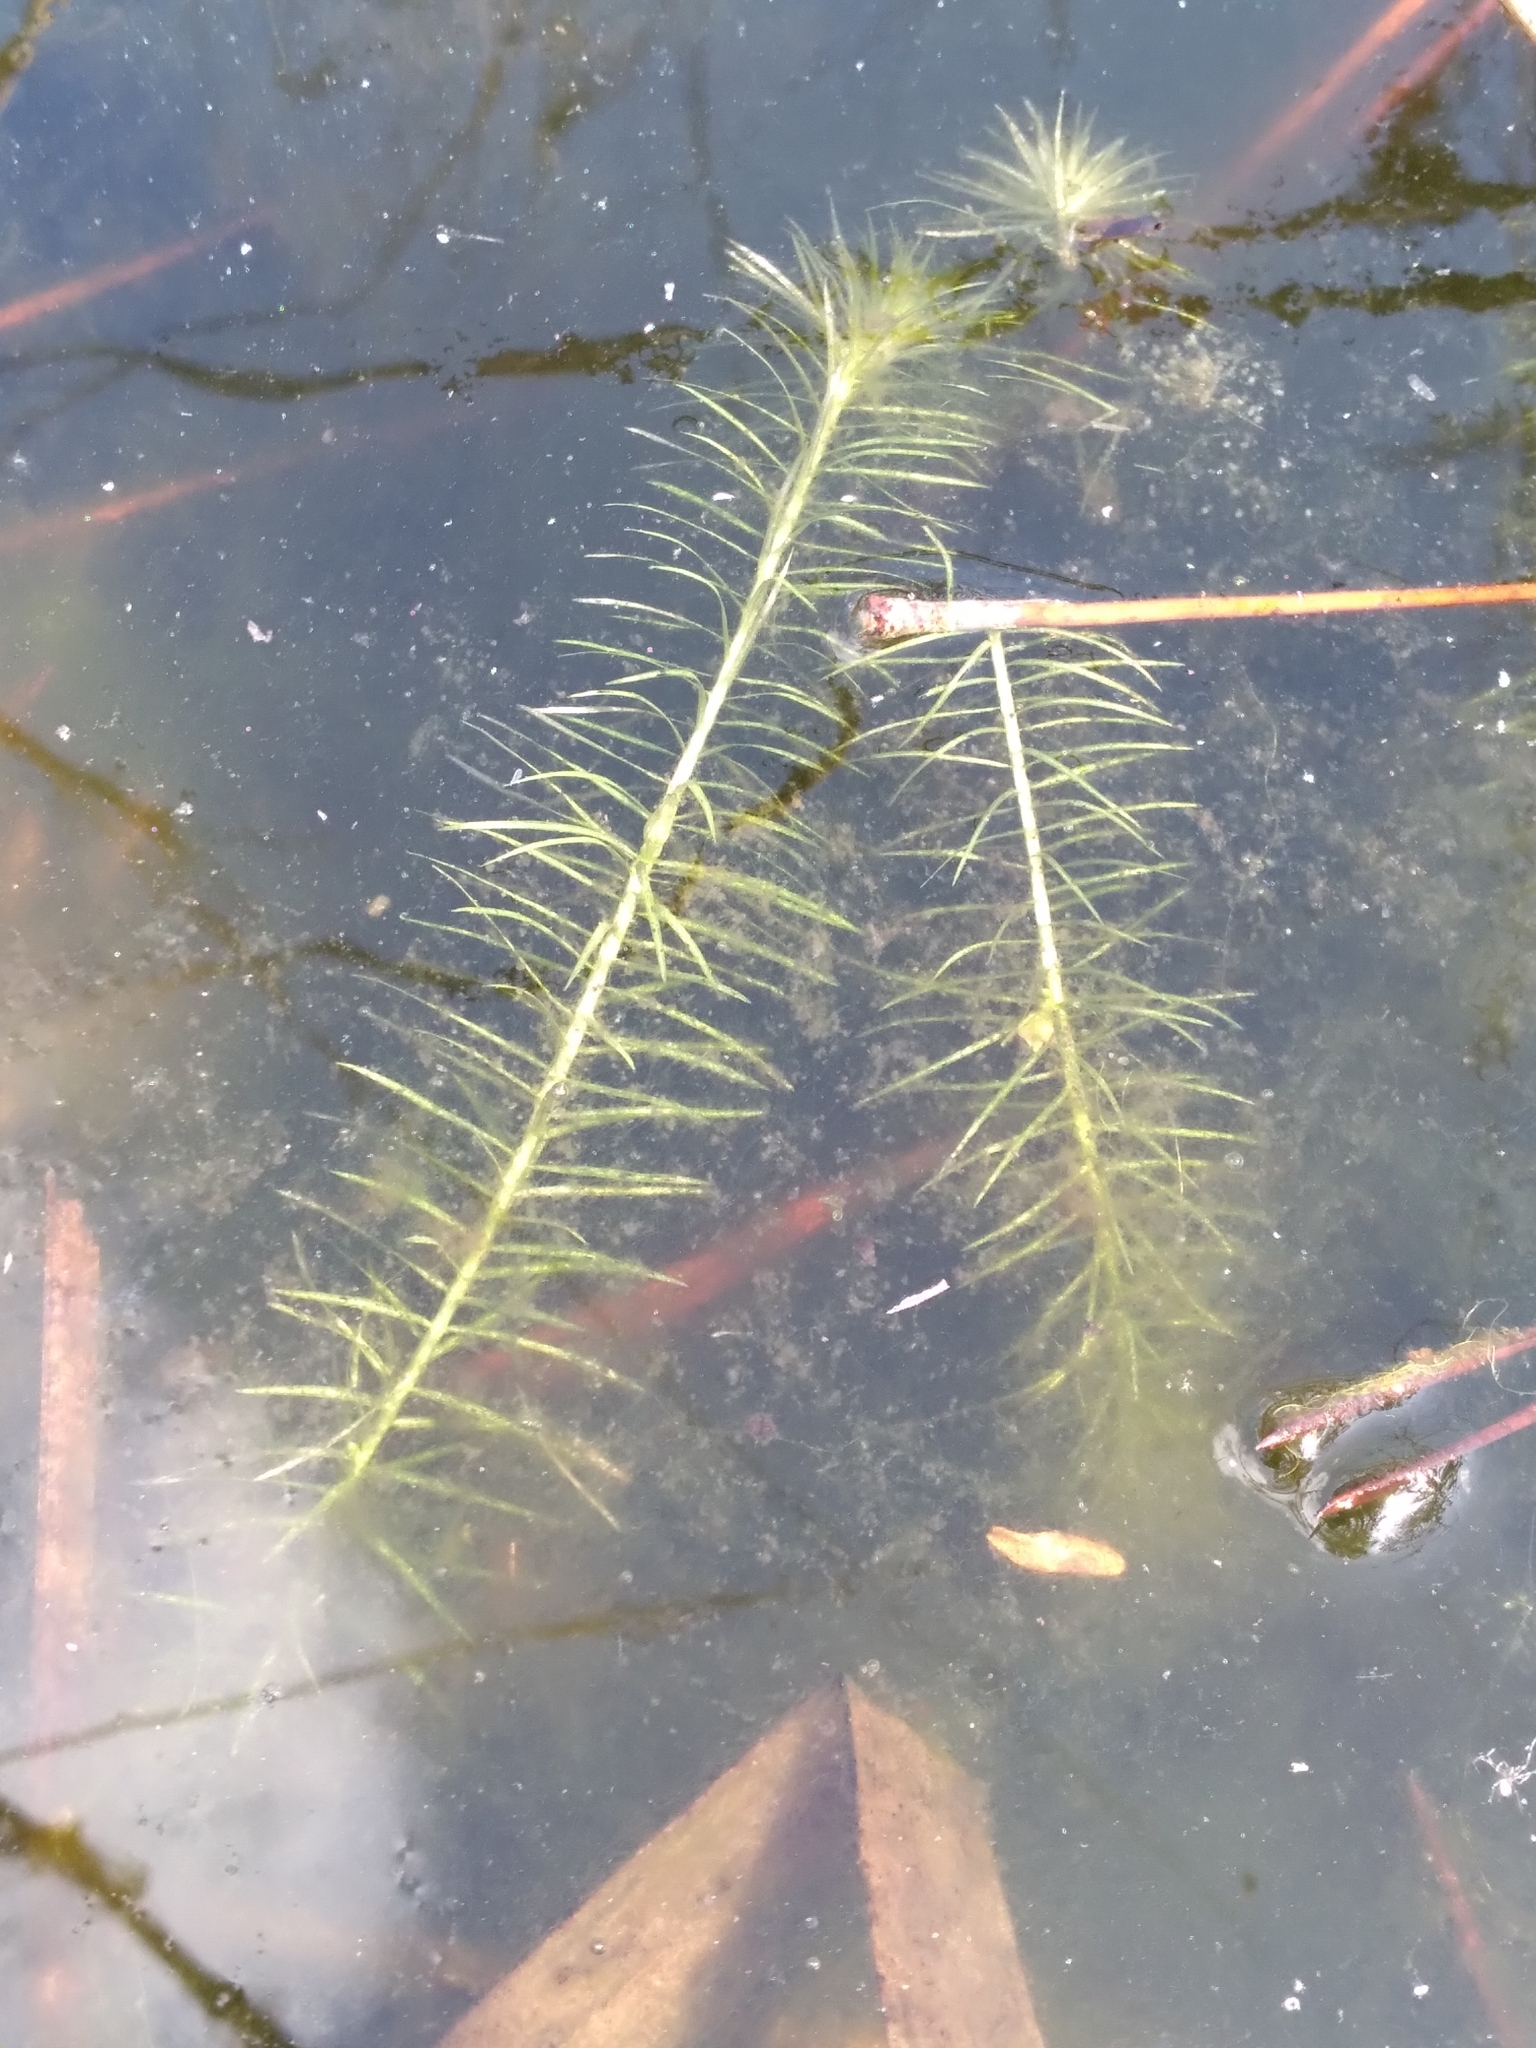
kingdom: Plantae
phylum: Tracheophyta
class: Liliopsida
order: Poales
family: Mayacaceae
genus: Mayaca
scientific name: Mayaca fluviatilis
